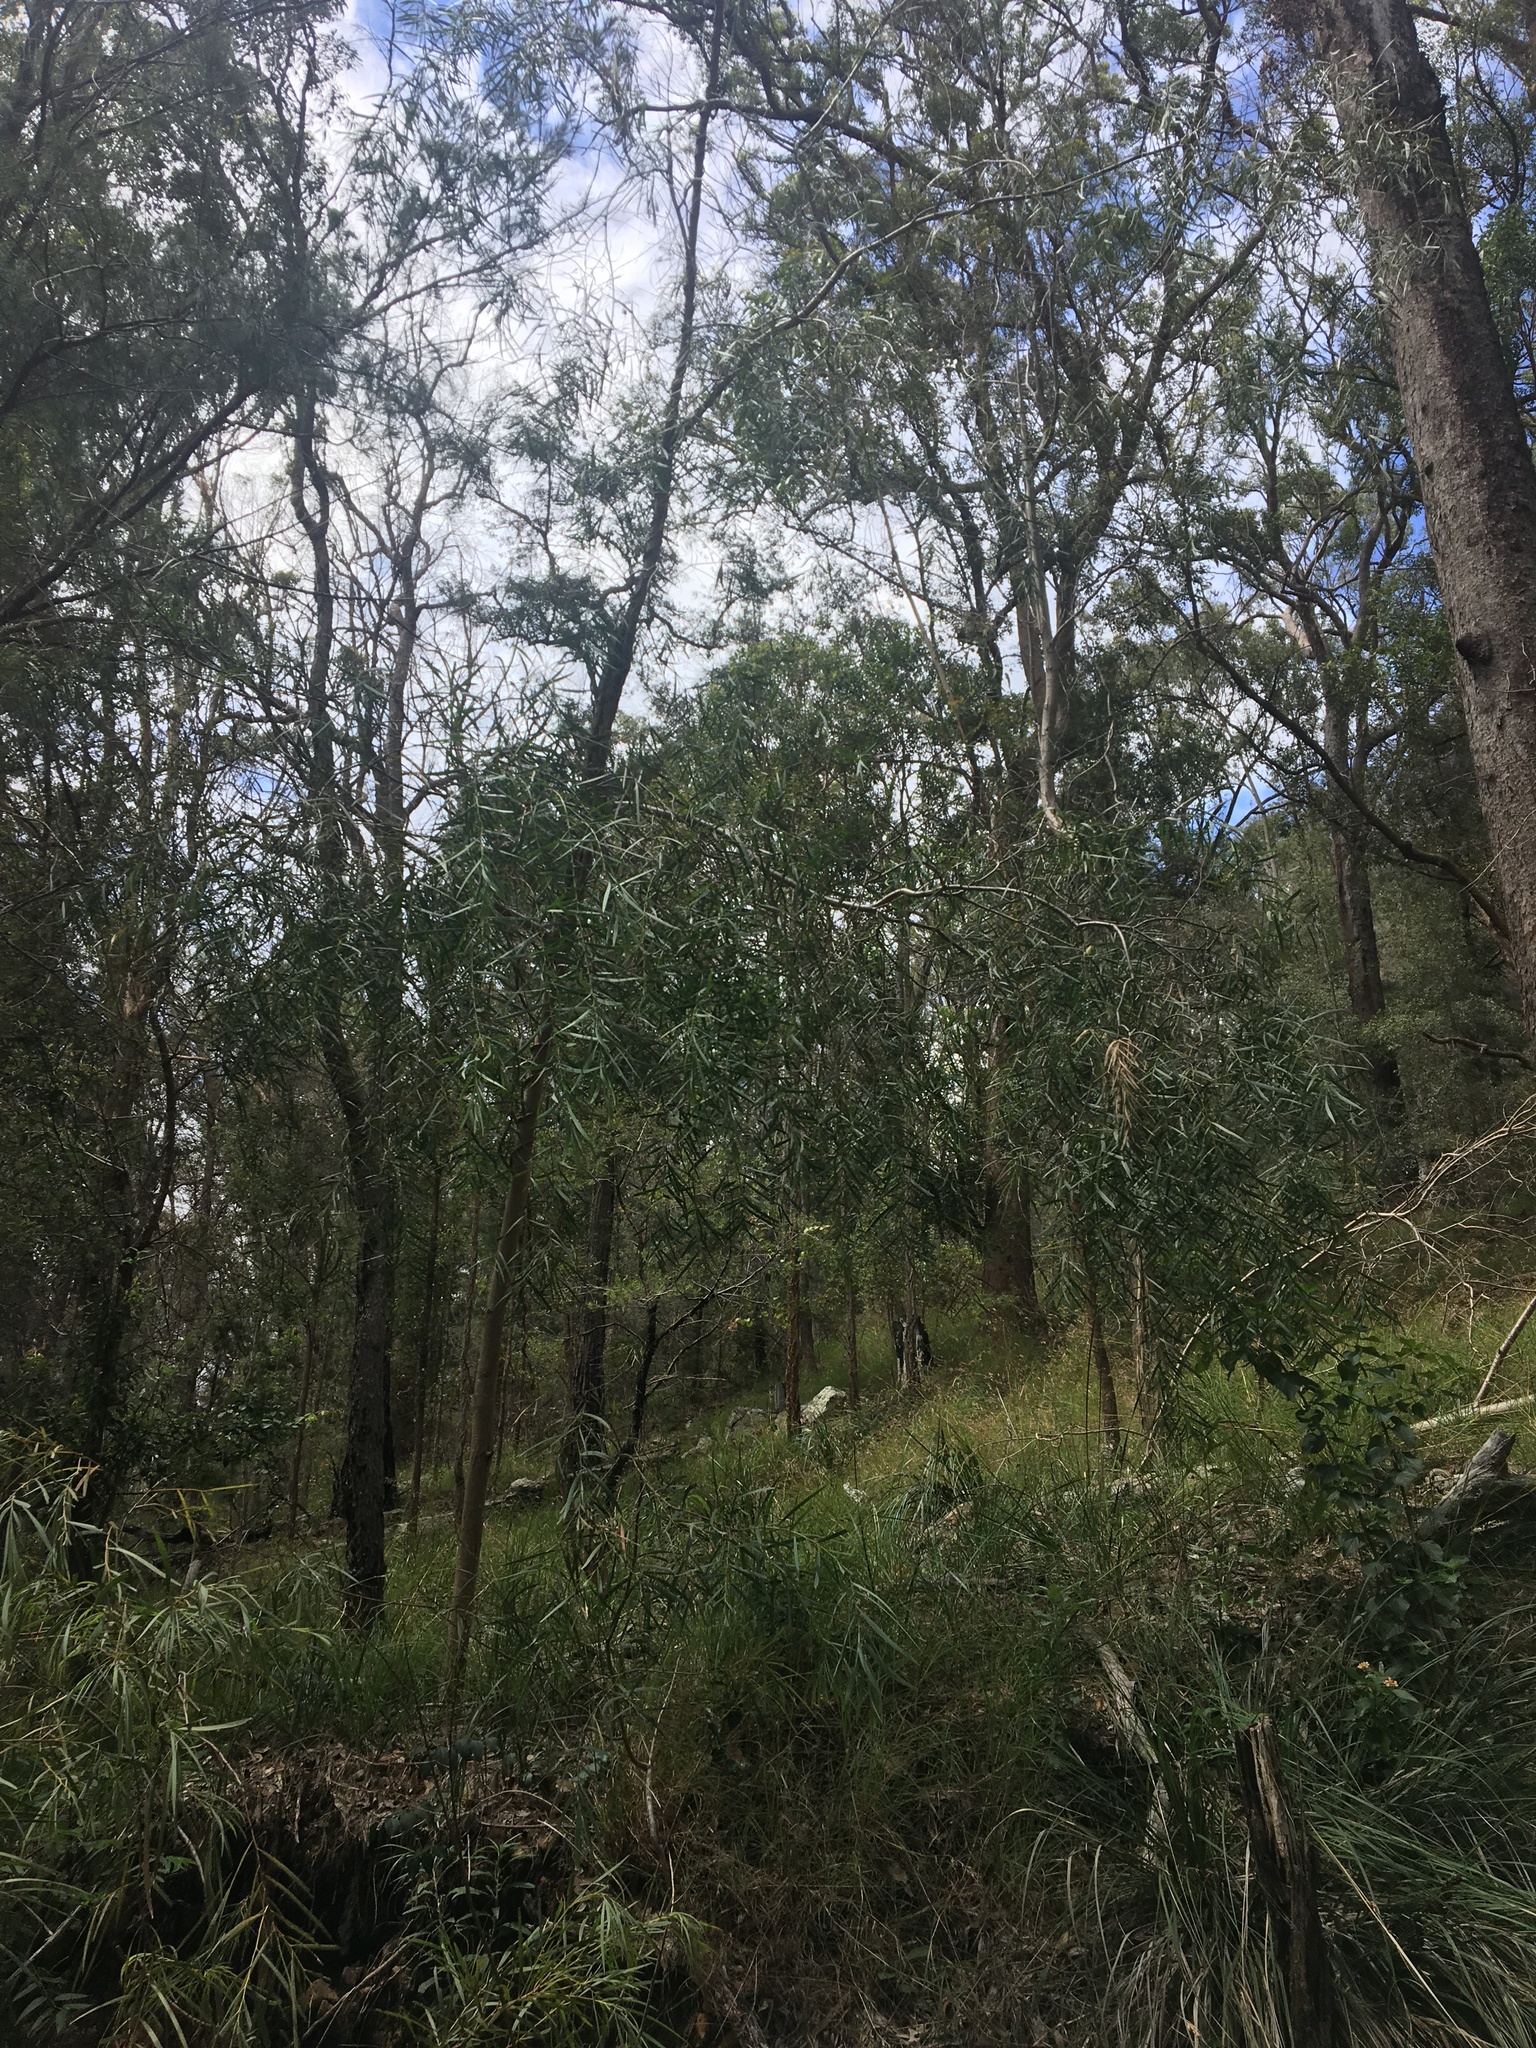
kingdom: Plantae
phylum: Tracheophyta
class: Magnoliopsida
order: Fabales
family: Fabaceae
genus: Acacia
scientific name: Acacia courtii
